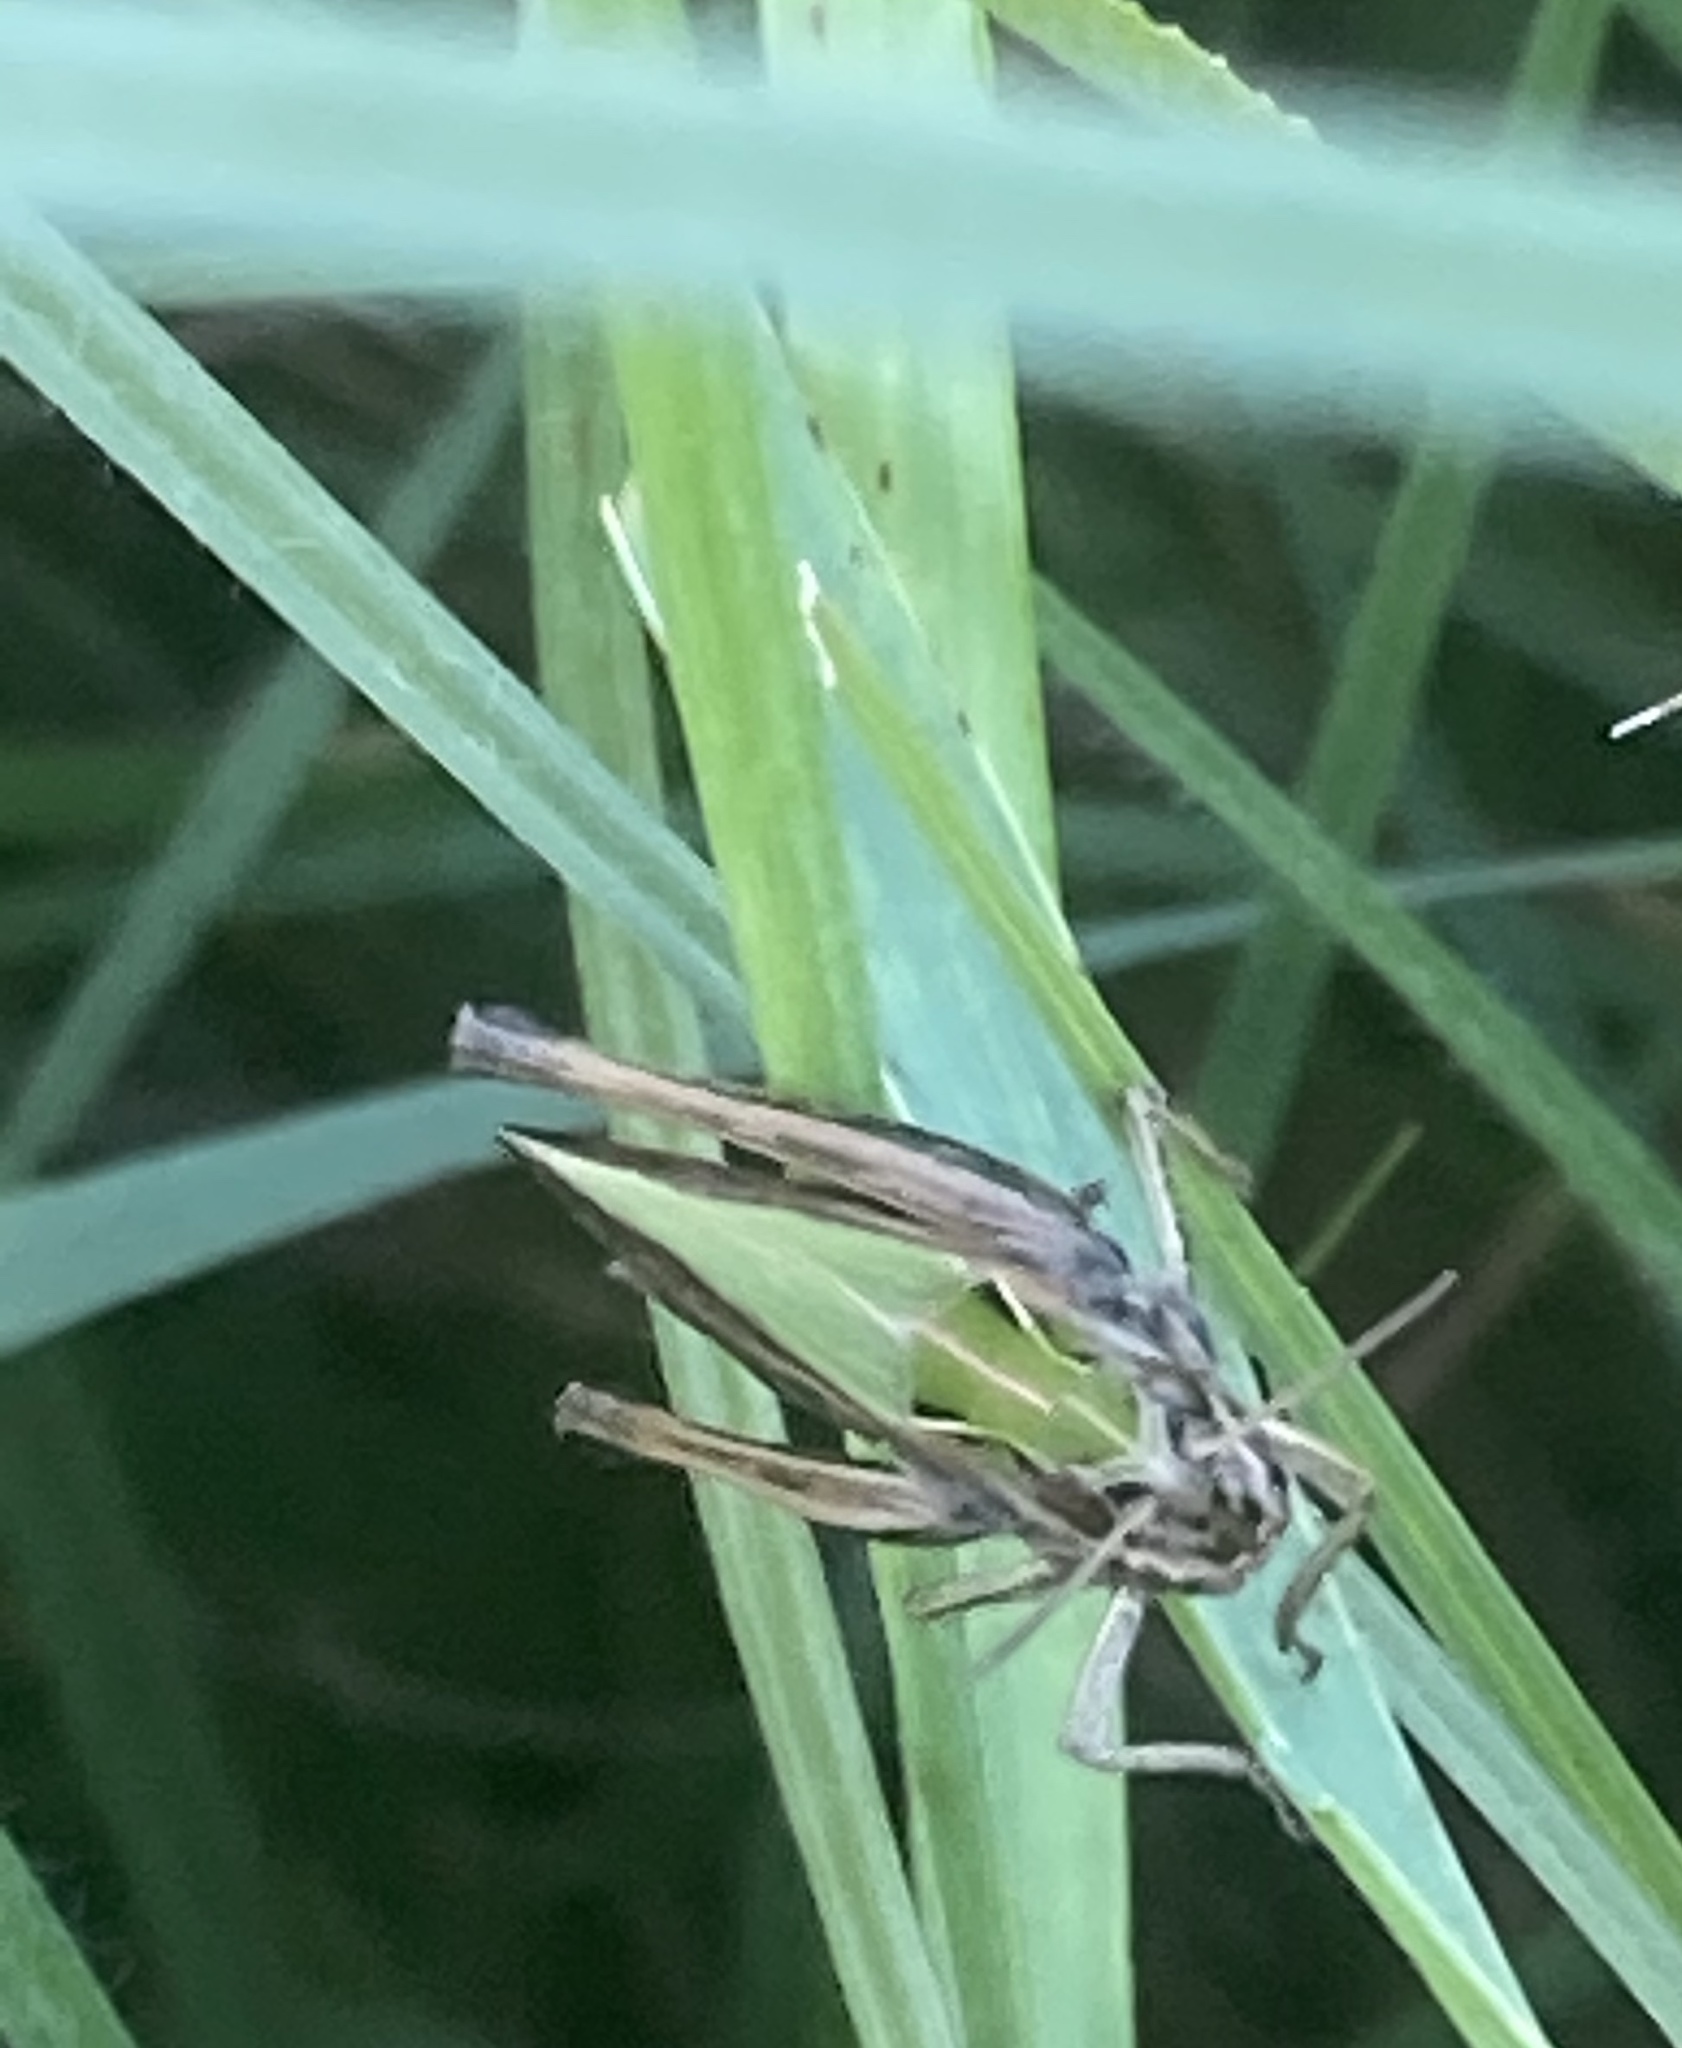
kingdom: Animalia
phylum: Arthropoda
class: Insecta
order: Orthoptera
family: Acrididae
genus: Omocestus
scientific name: Omocestus viridulus
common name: Common green grasshopper
